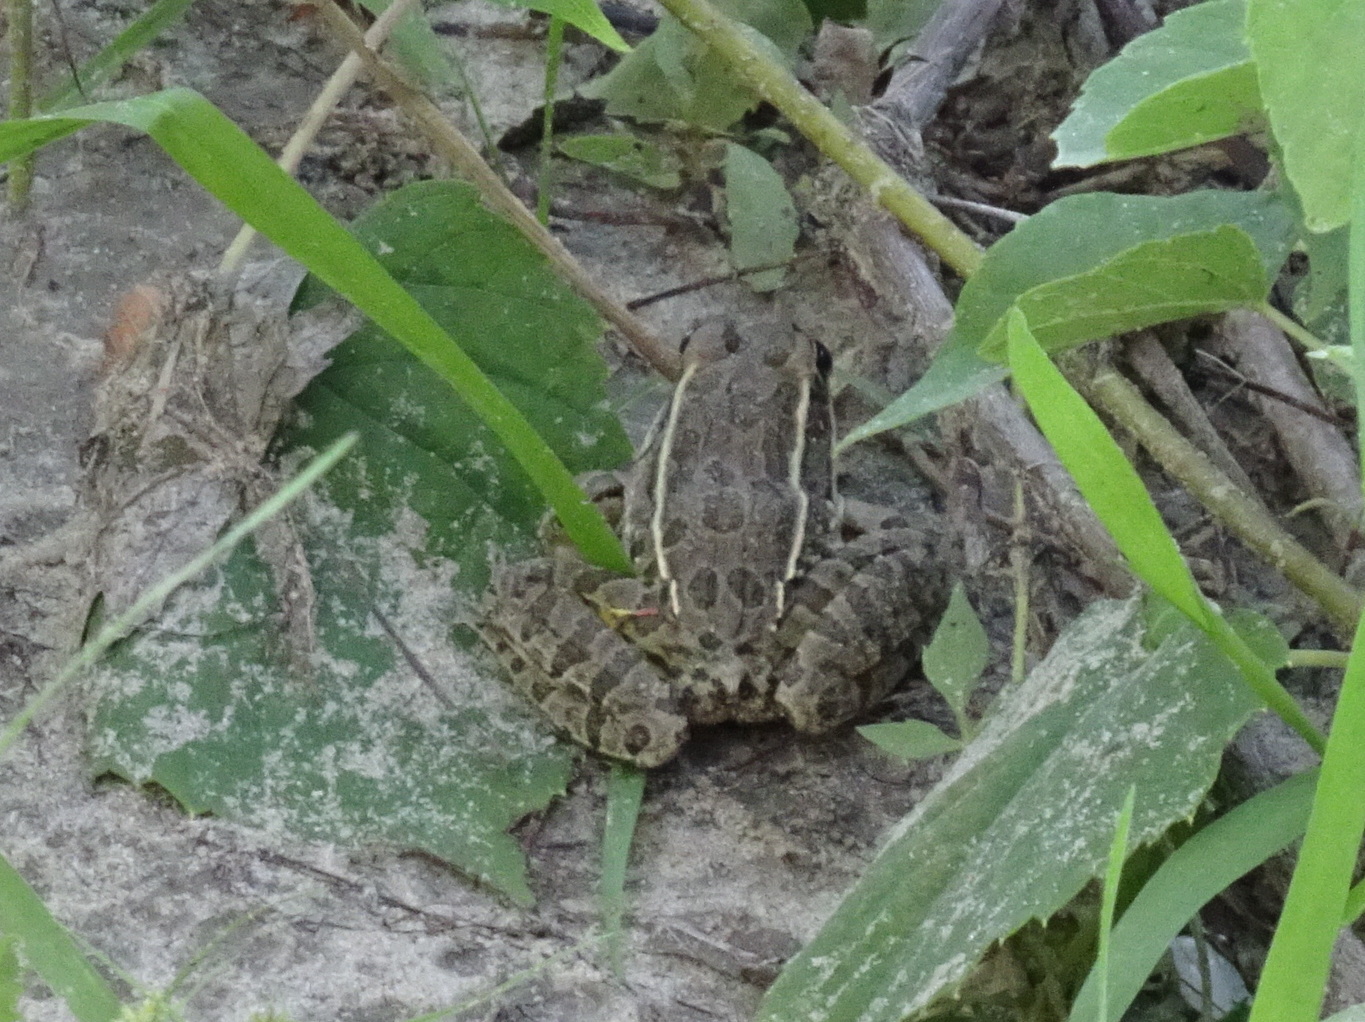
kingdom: Animalia
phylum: Chordata
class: Amphibia
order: Anura
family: Ranidae
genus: Lithobates
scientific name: Lithobates blairi
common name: Plains leopard frog
